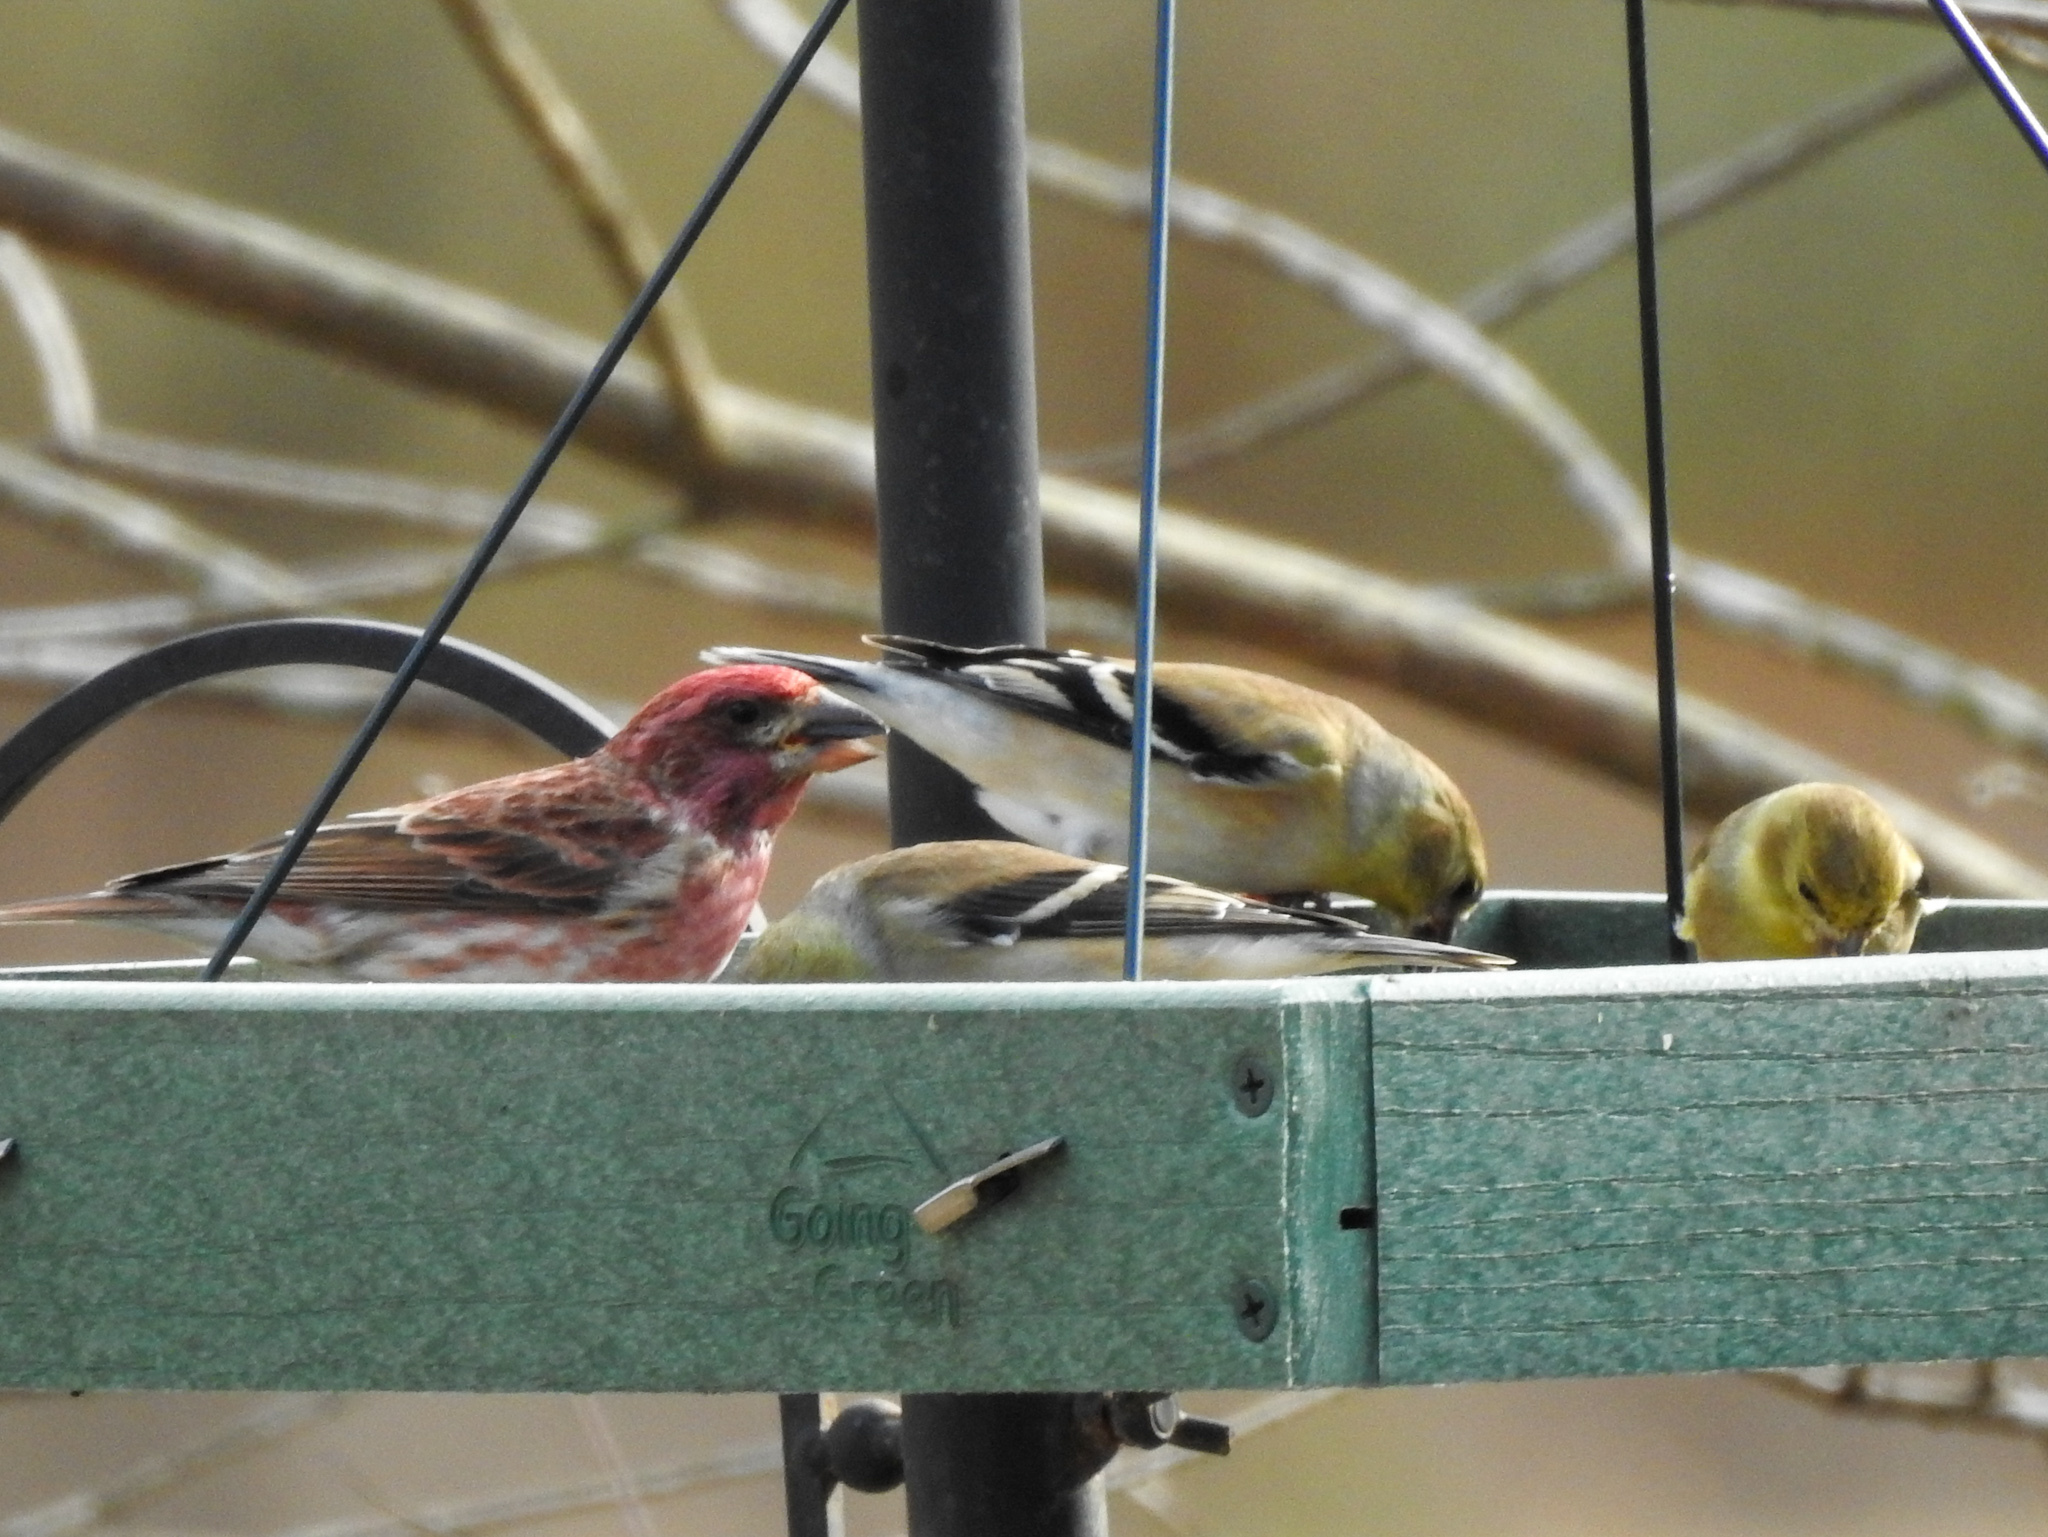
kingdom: Animalia
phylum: Chordata
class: Aves
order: Passeriformes
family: Fringillidae
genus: Haemorhous
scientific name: Haemorhous purpureus
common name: Purple finch
